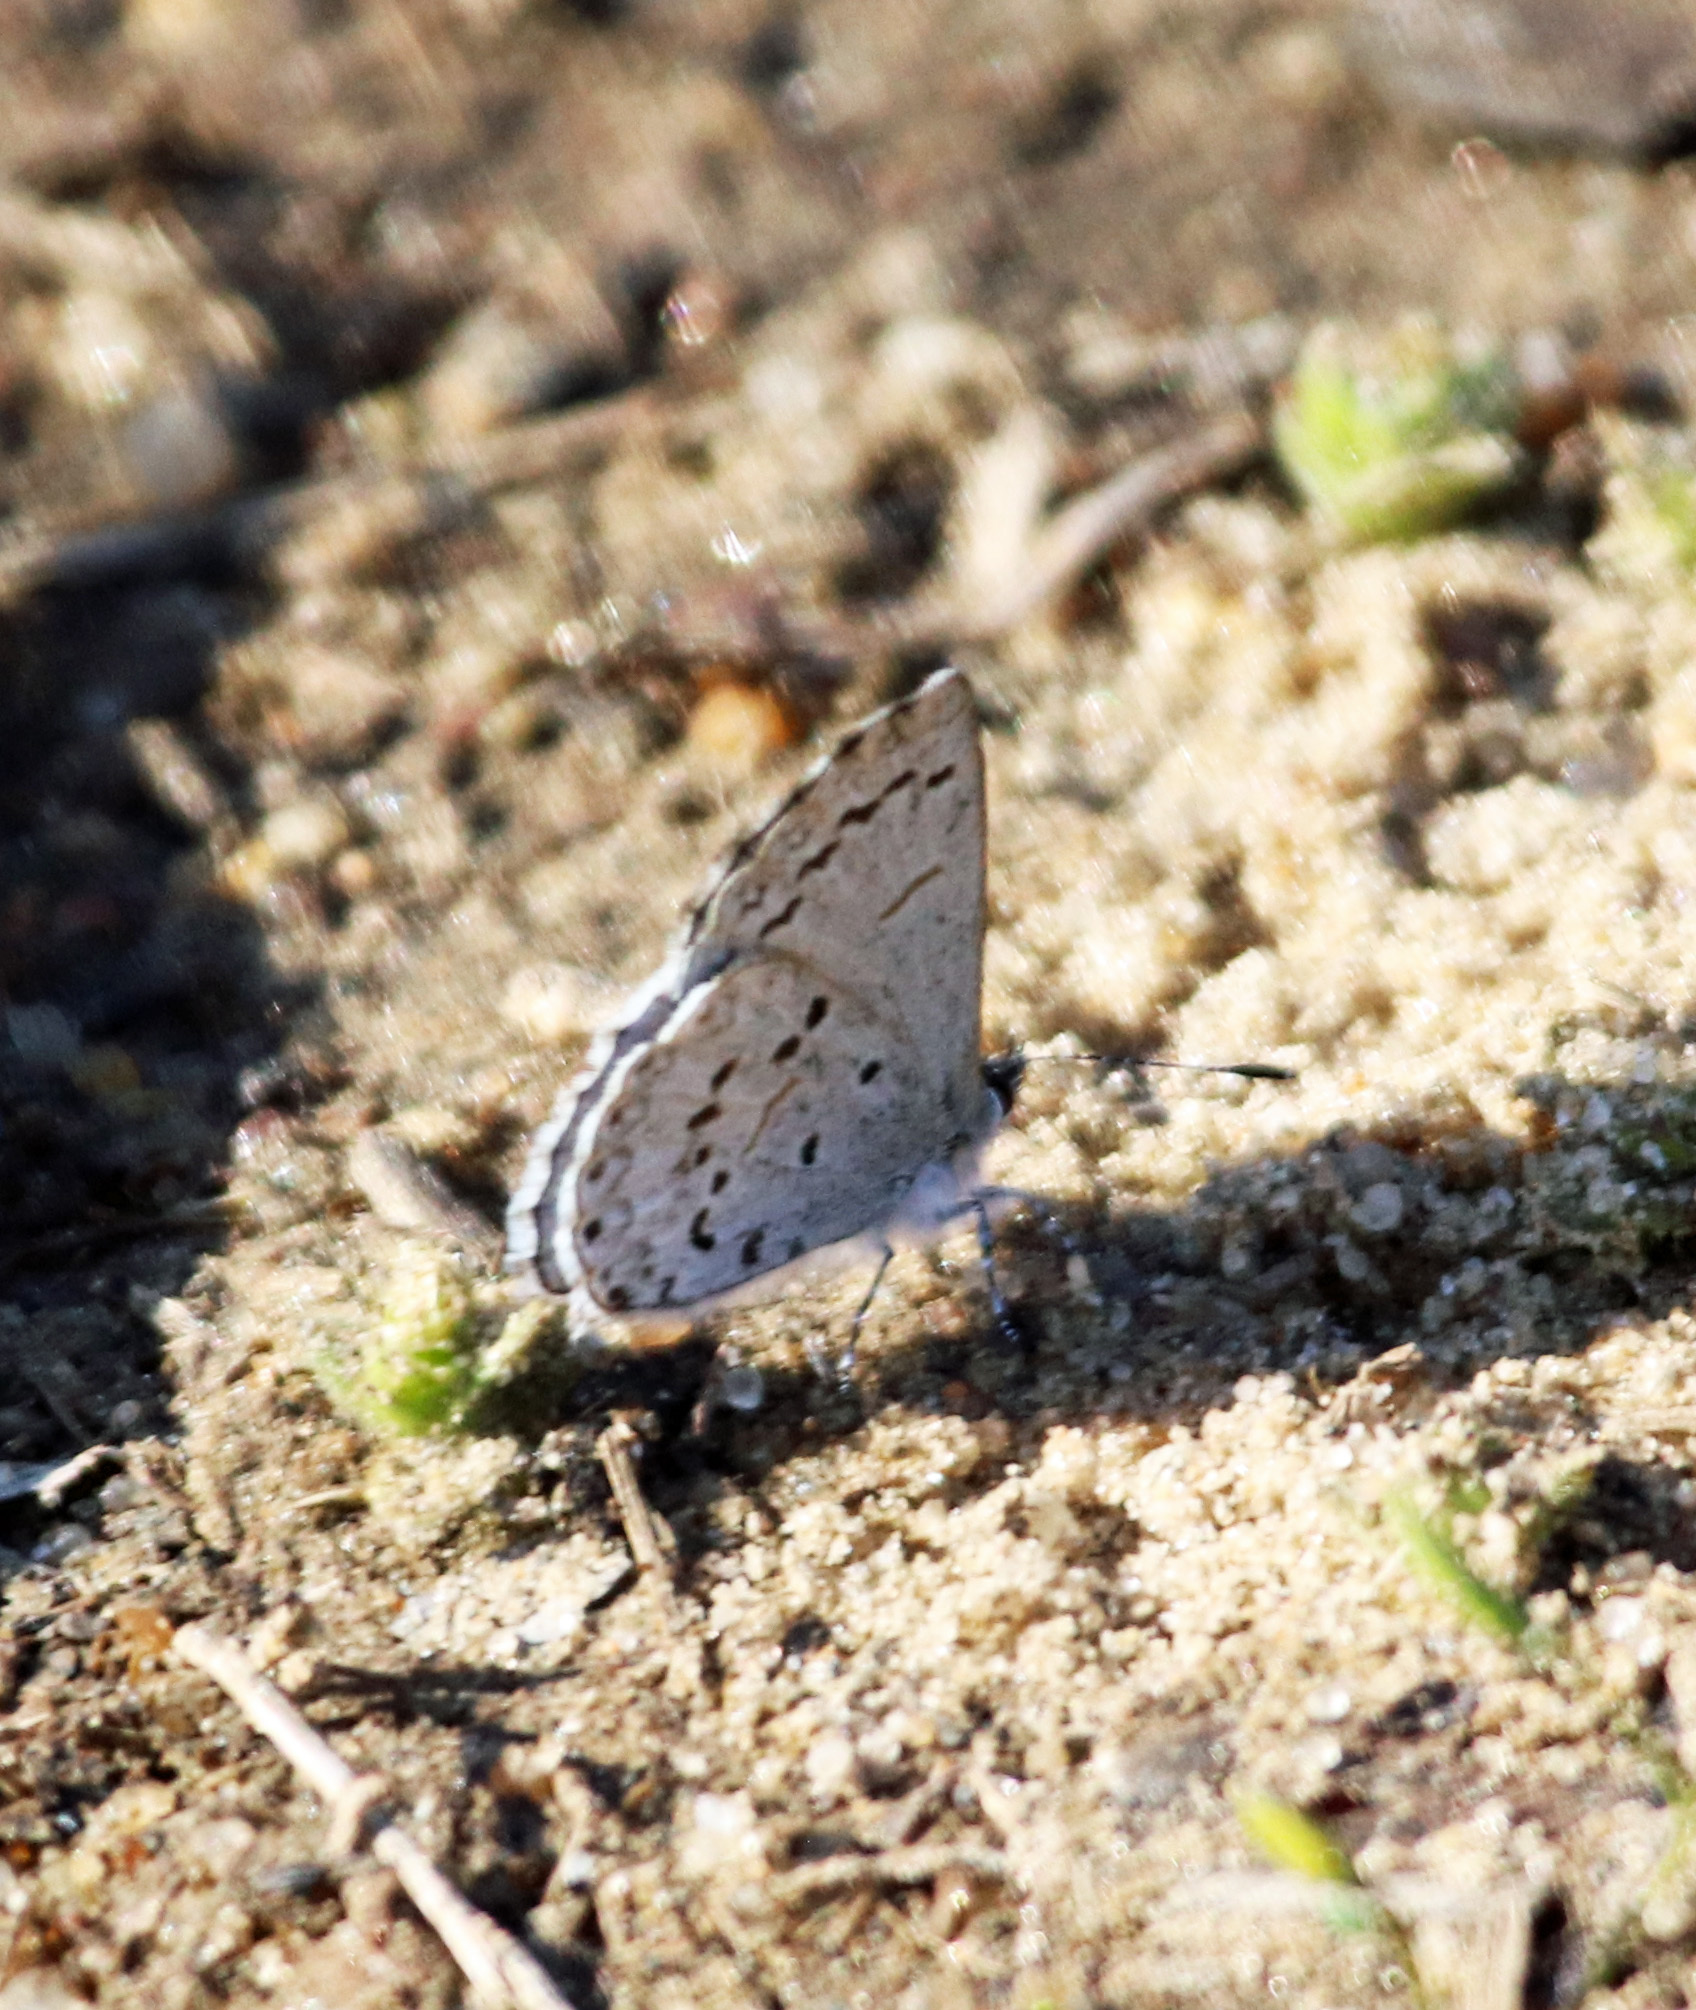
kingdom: Animalia
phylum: Arthropoda
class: Insecta
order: Lepidoptera
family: Lycaenidae
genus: Celastrina
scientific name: Celastrina ladon
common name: Spring azure
